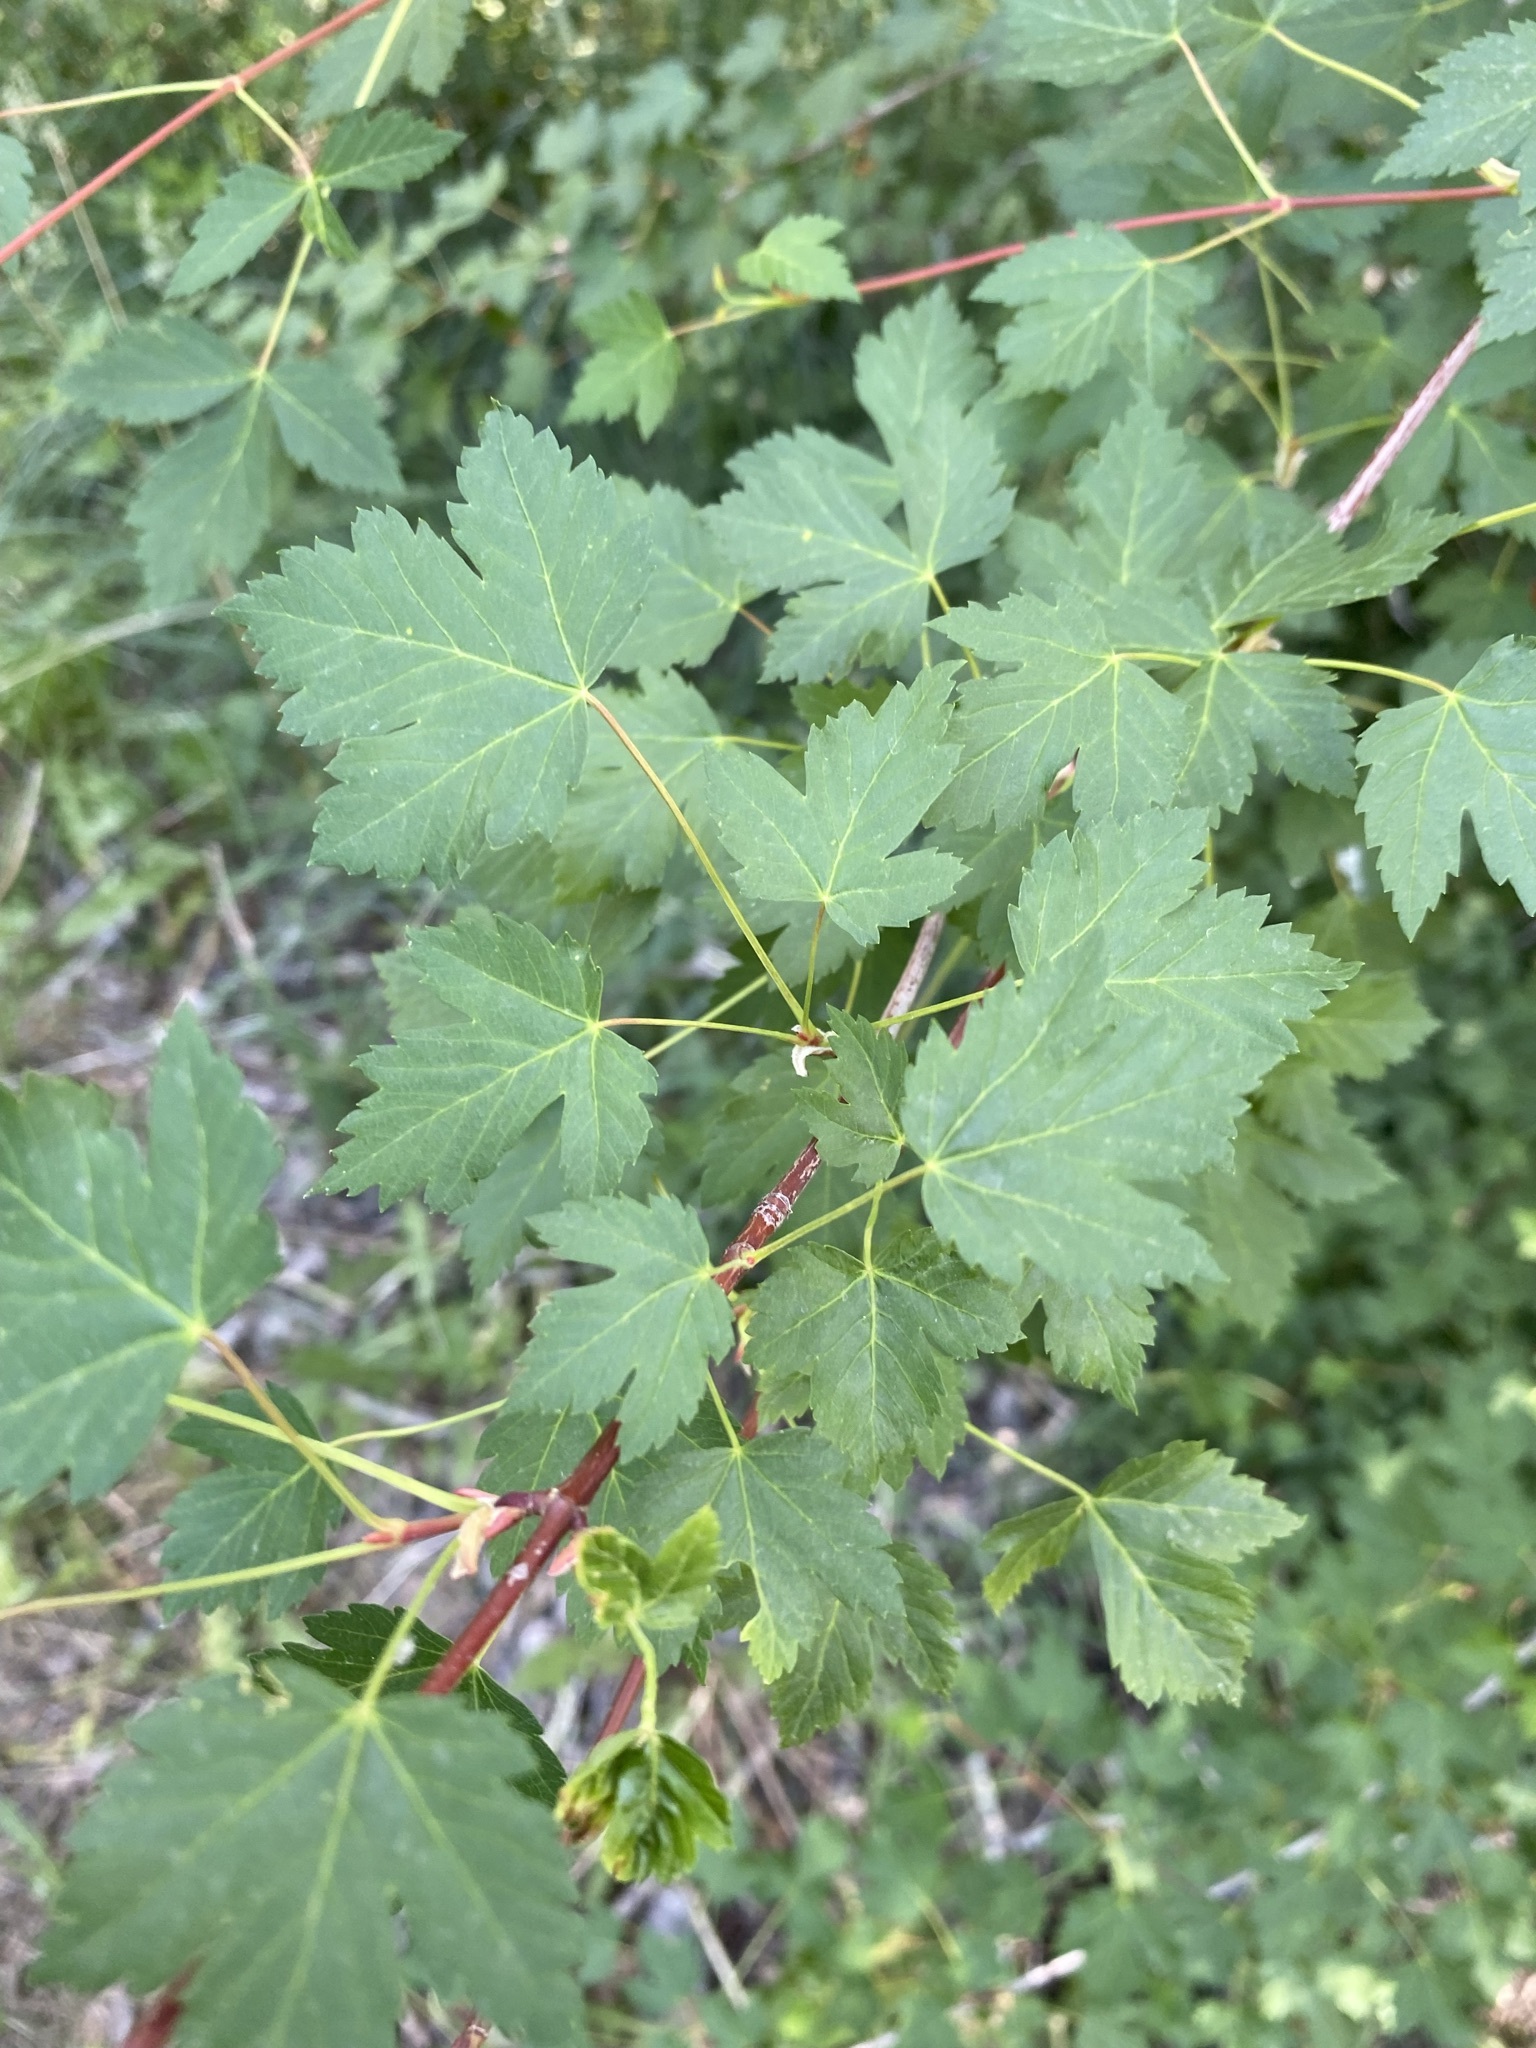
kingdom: Plantae
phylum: Tracheophyta
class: Magnoliopsida
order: Sapindales
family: Sapindaceae
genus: Acer
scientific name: Acer glabrum
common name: Rocky mountain maple
